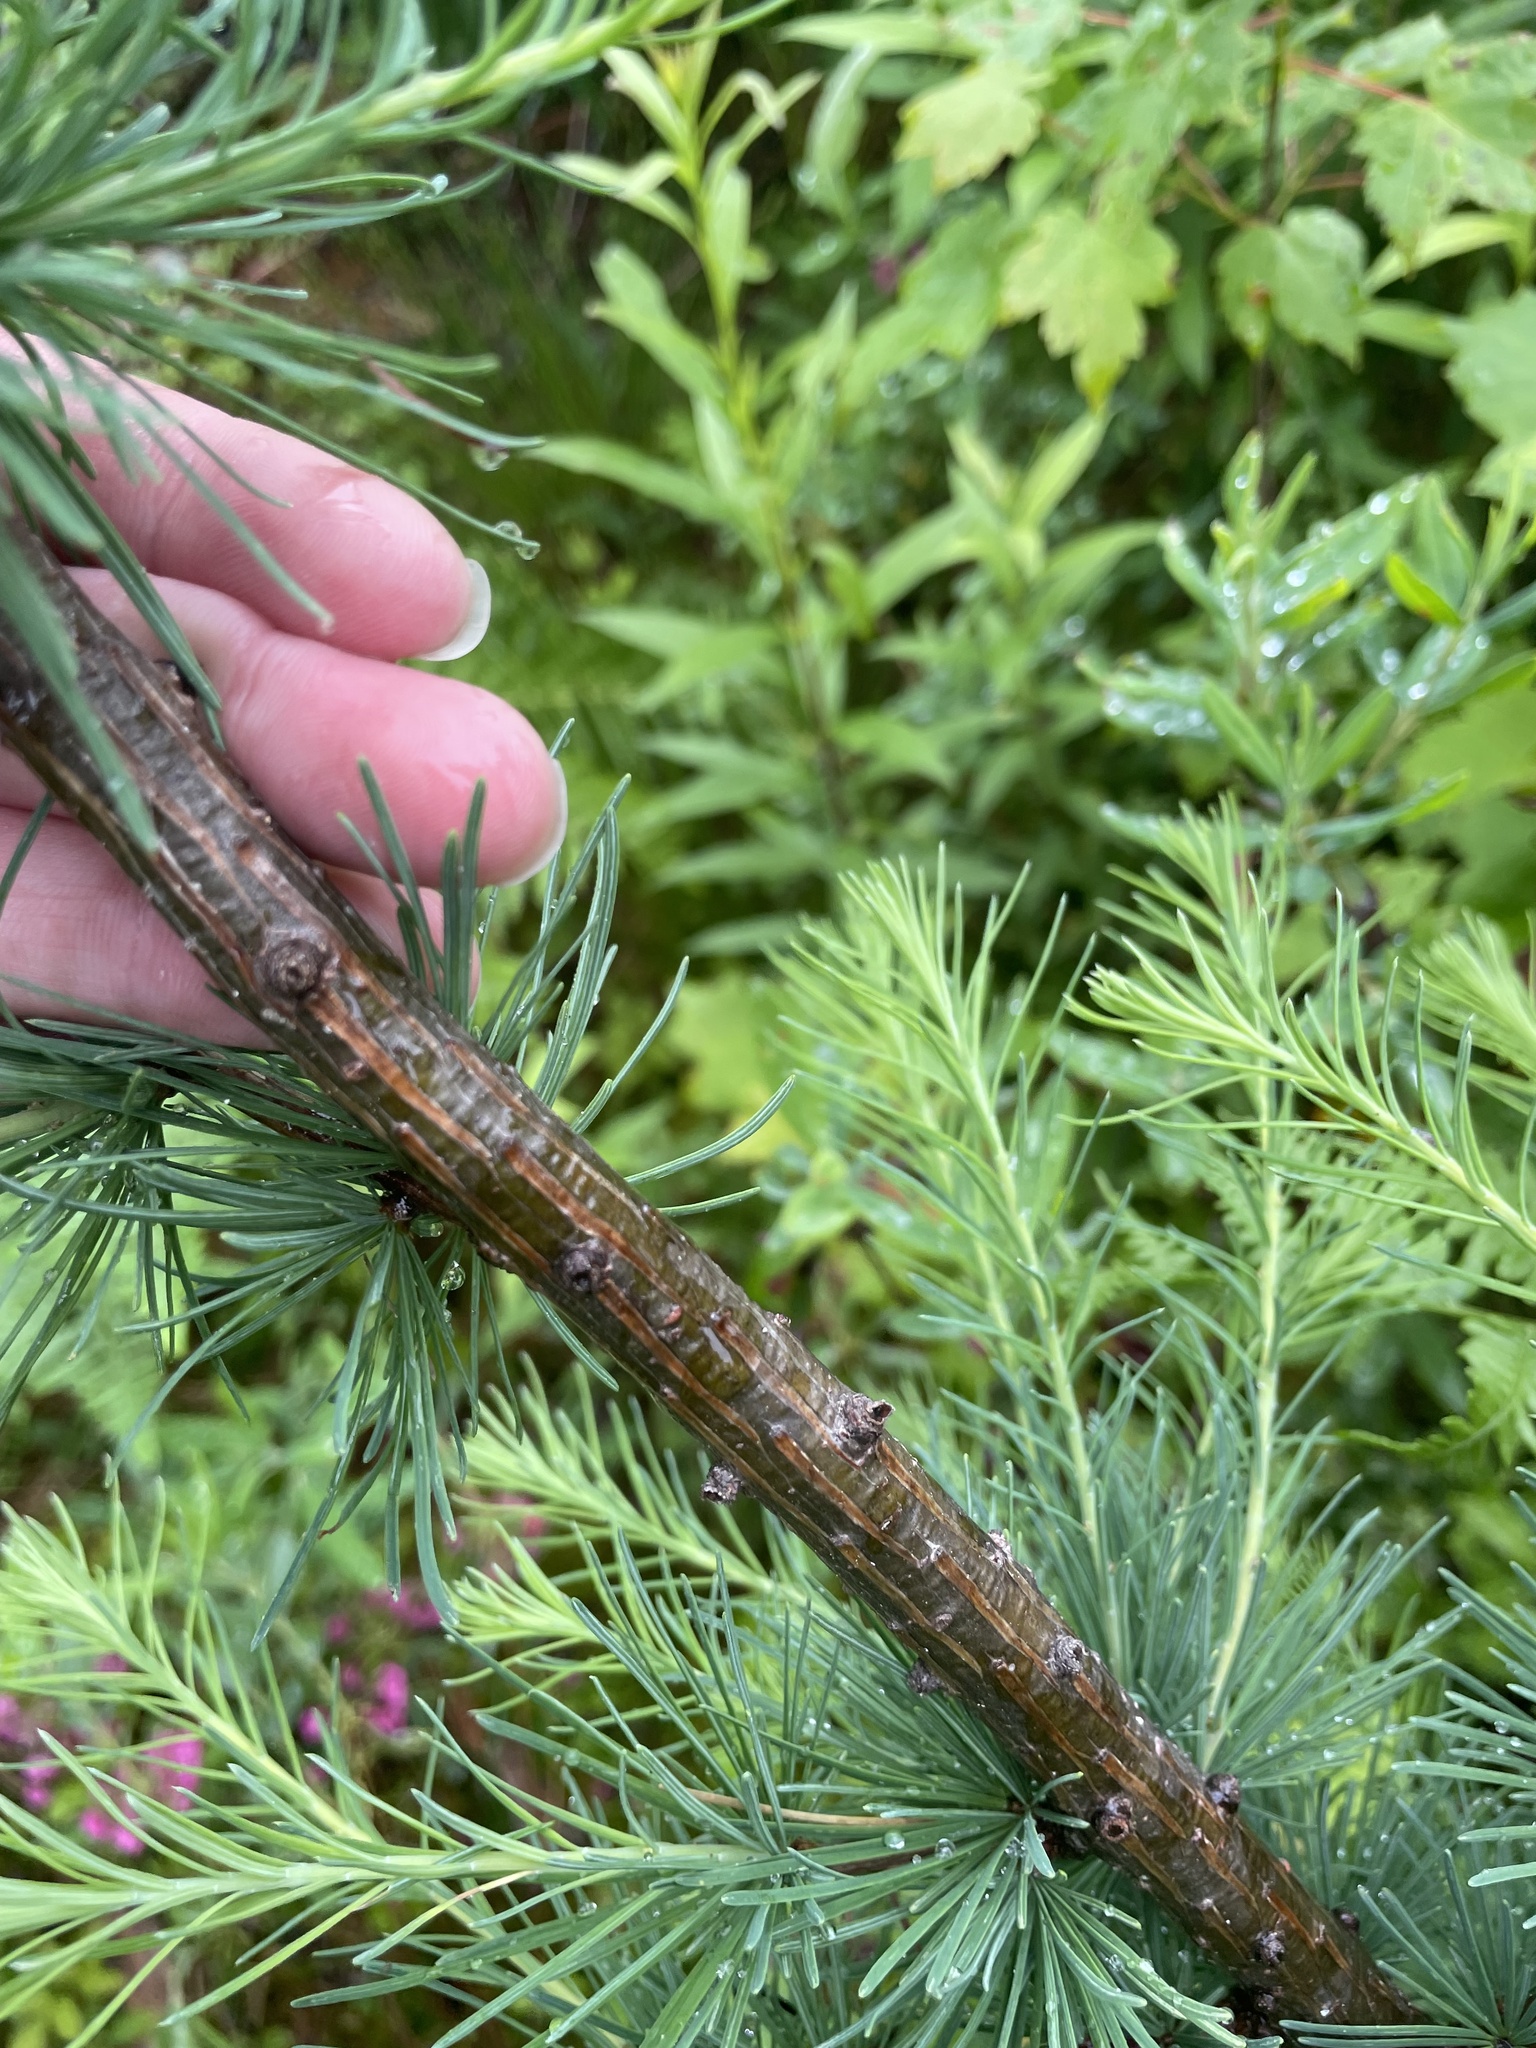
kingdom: Plantae
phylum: Tracheophyta
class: Pinopsida
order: Pinales
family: Pinaceae
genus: Larix
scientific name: Larix laricina
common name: American larch
